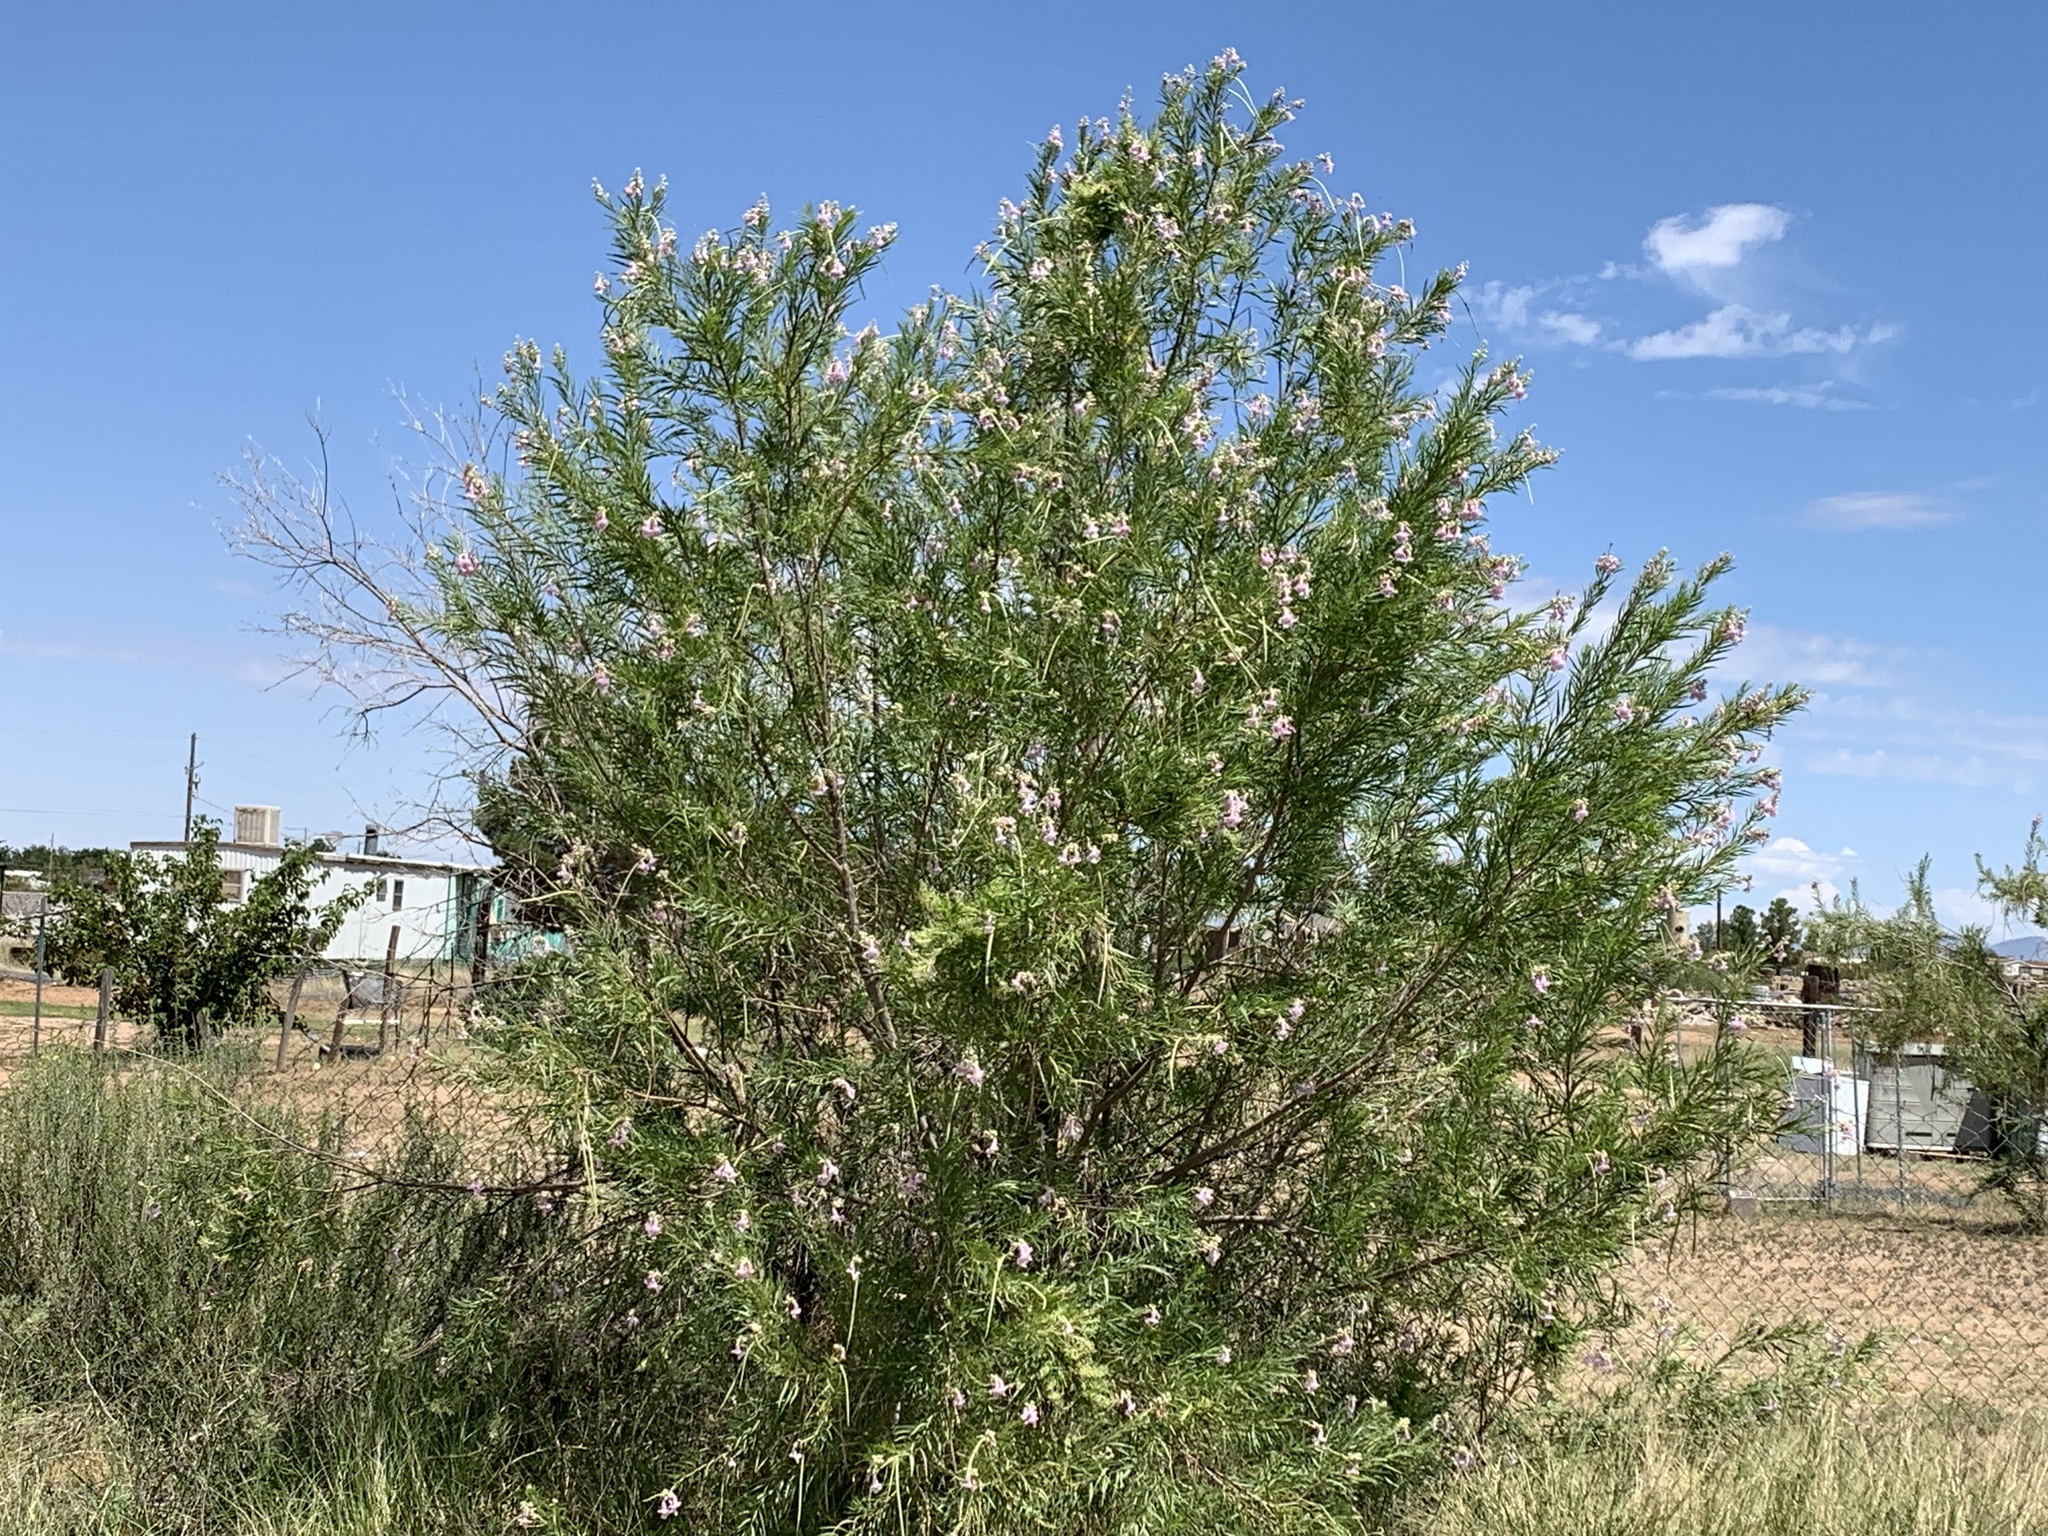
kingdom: Plantae
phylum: Tracheophyta
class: Magnoliopsida
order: Lamiales
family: Bignoniaceae
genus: Chilopsis
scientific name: Chilopsis linearis
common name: Desert-willow
